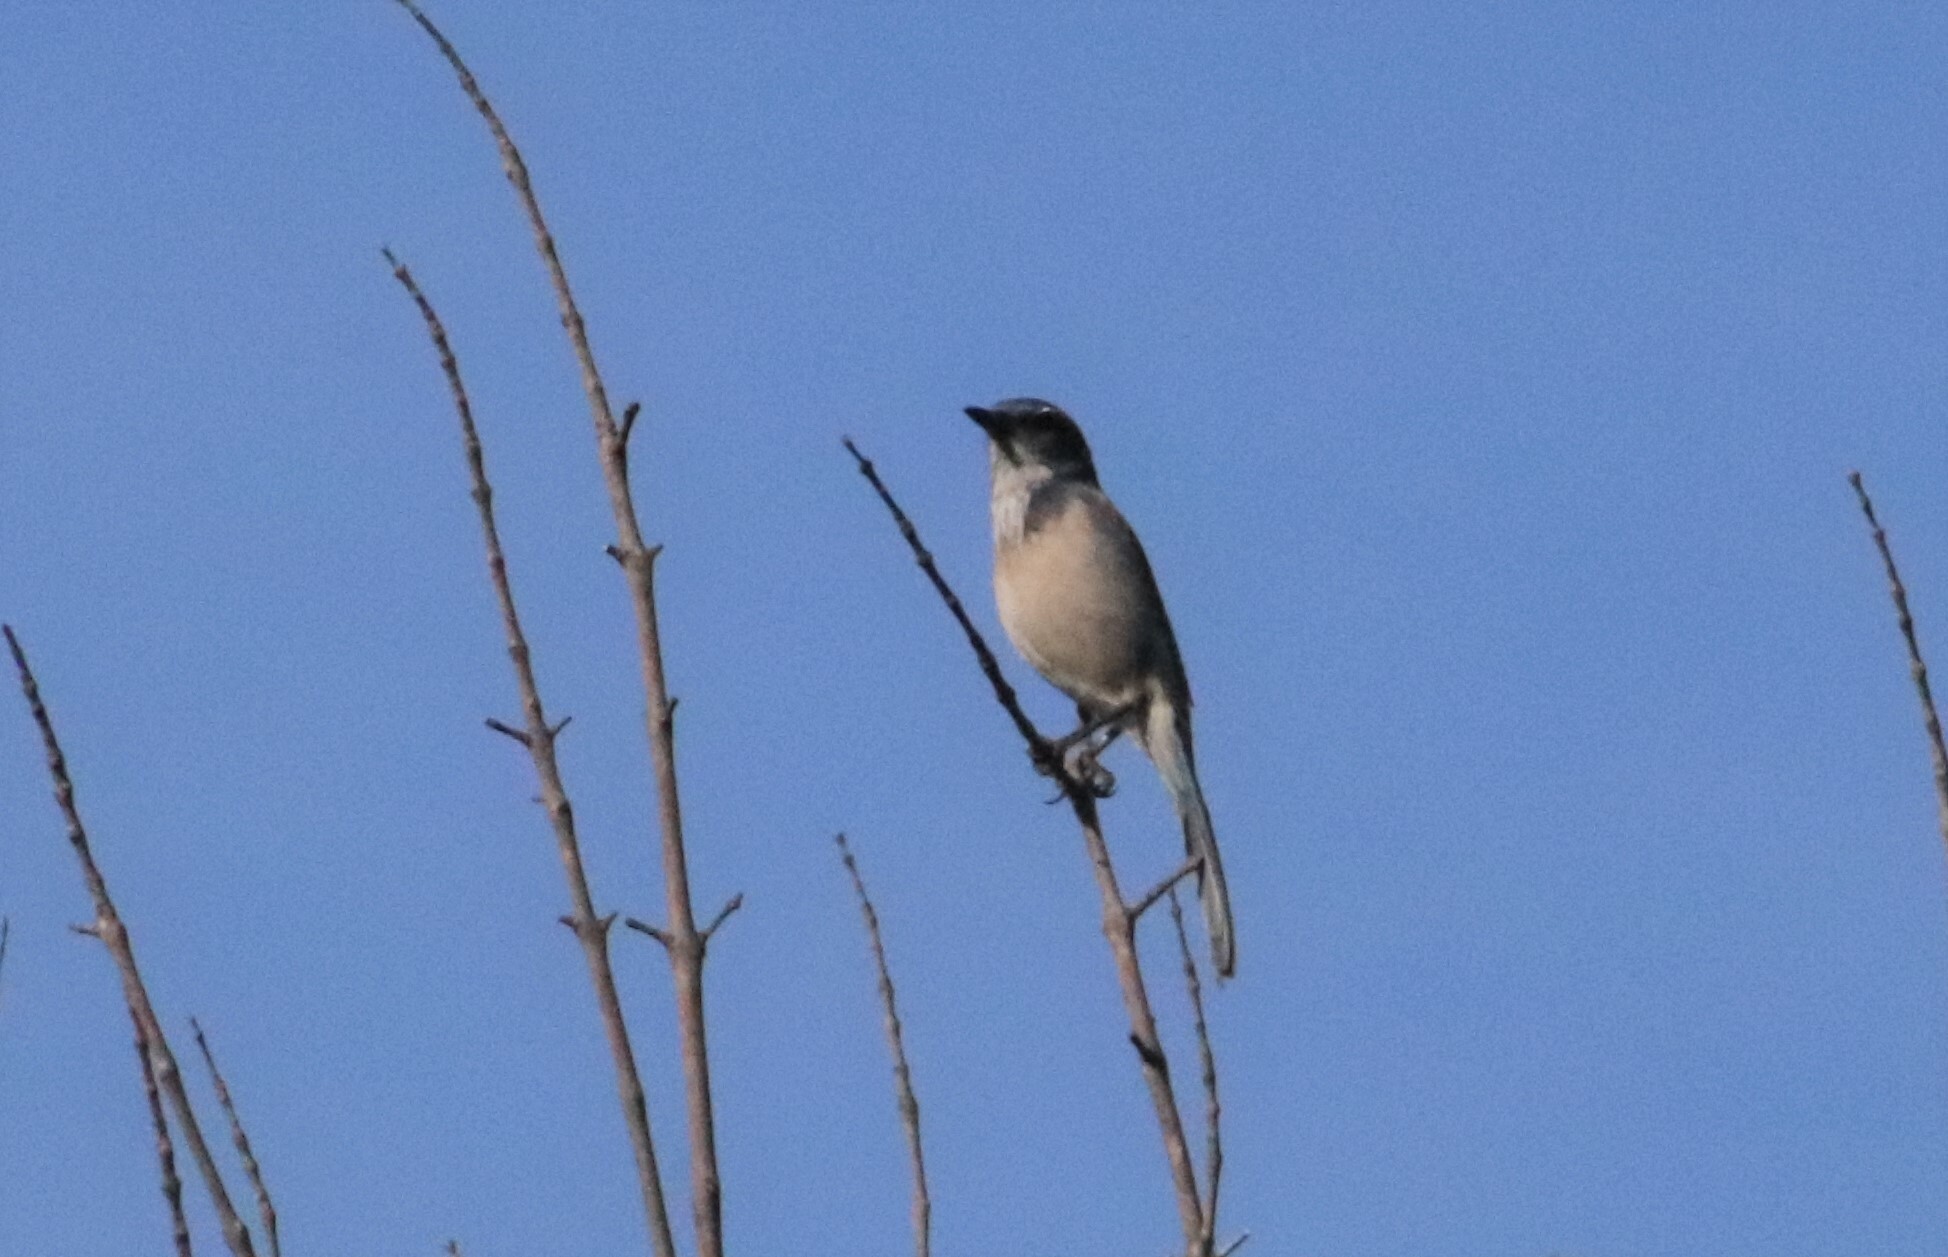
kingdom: Animalia
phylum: Chordata
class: Aves
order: Passeriformes
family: Corvidae
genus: Aphelocoma
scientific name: Aphelocoma californica
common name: California scrub-jay
